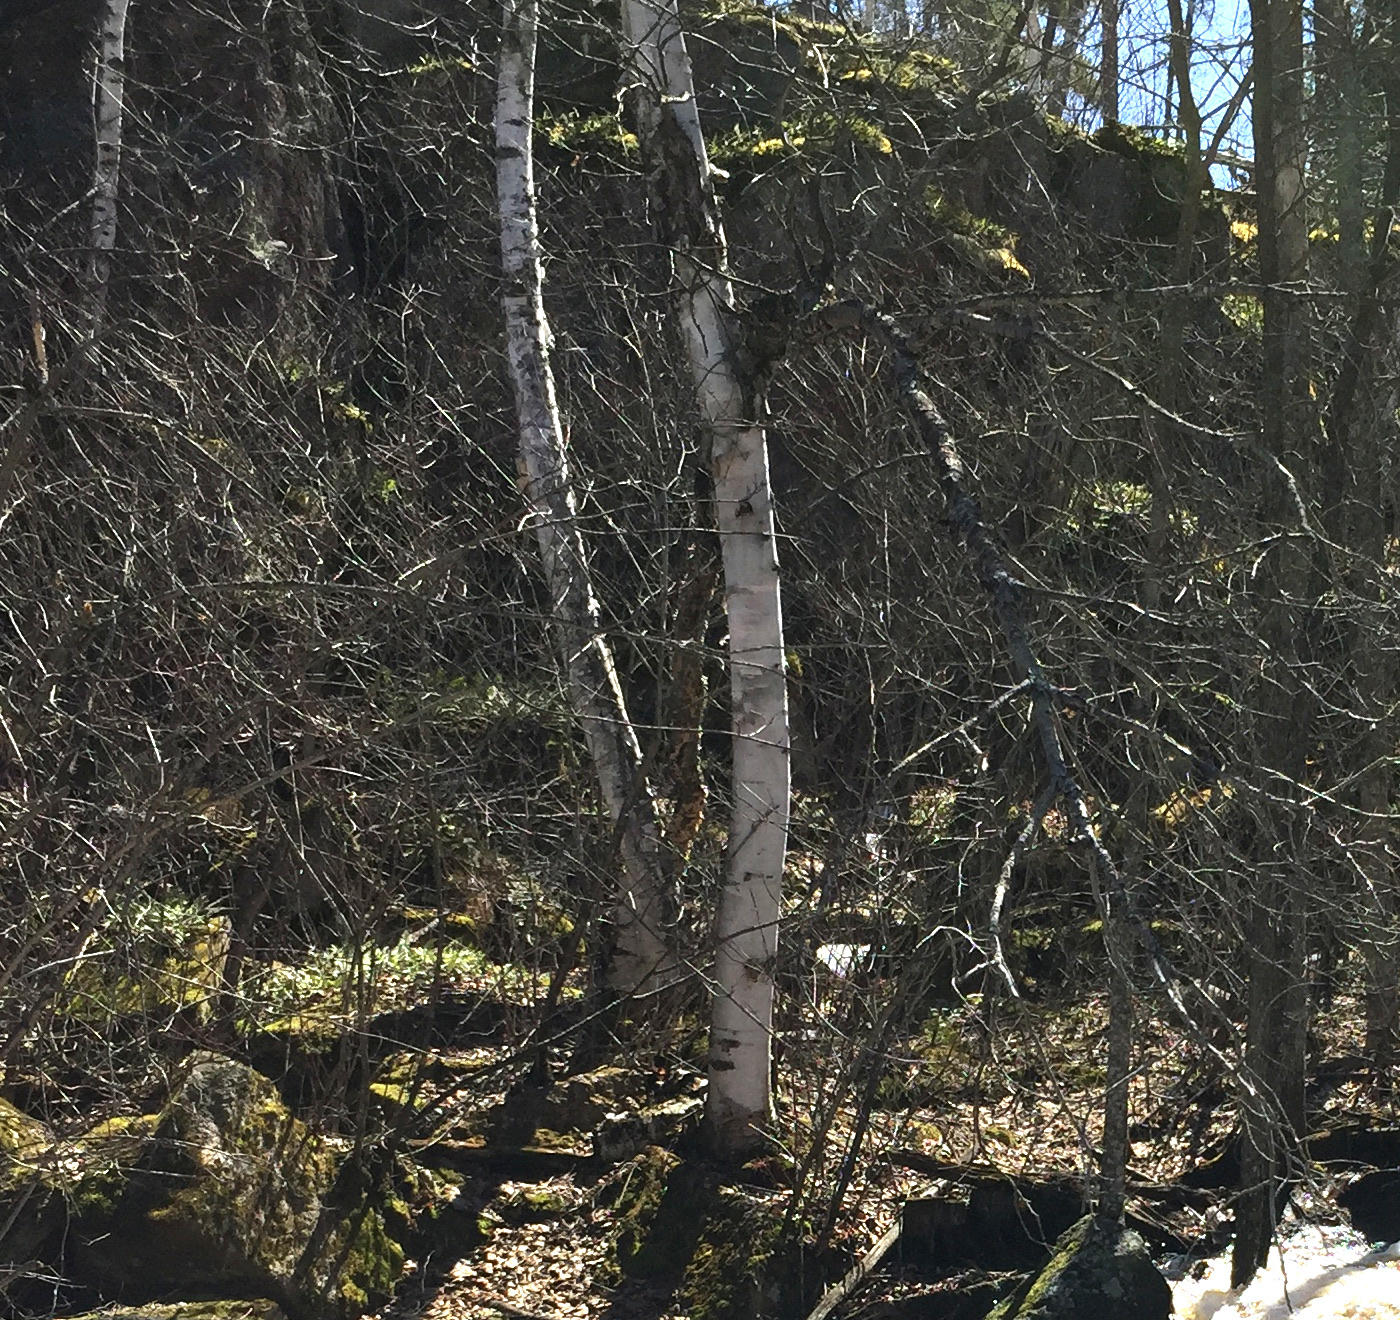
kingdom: Plantae
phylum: Tracheophyta
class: Magnoliopsida
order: Fagales
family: Betulaceae
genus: Betula
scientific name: Betula papyrifera
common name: Paper birch
